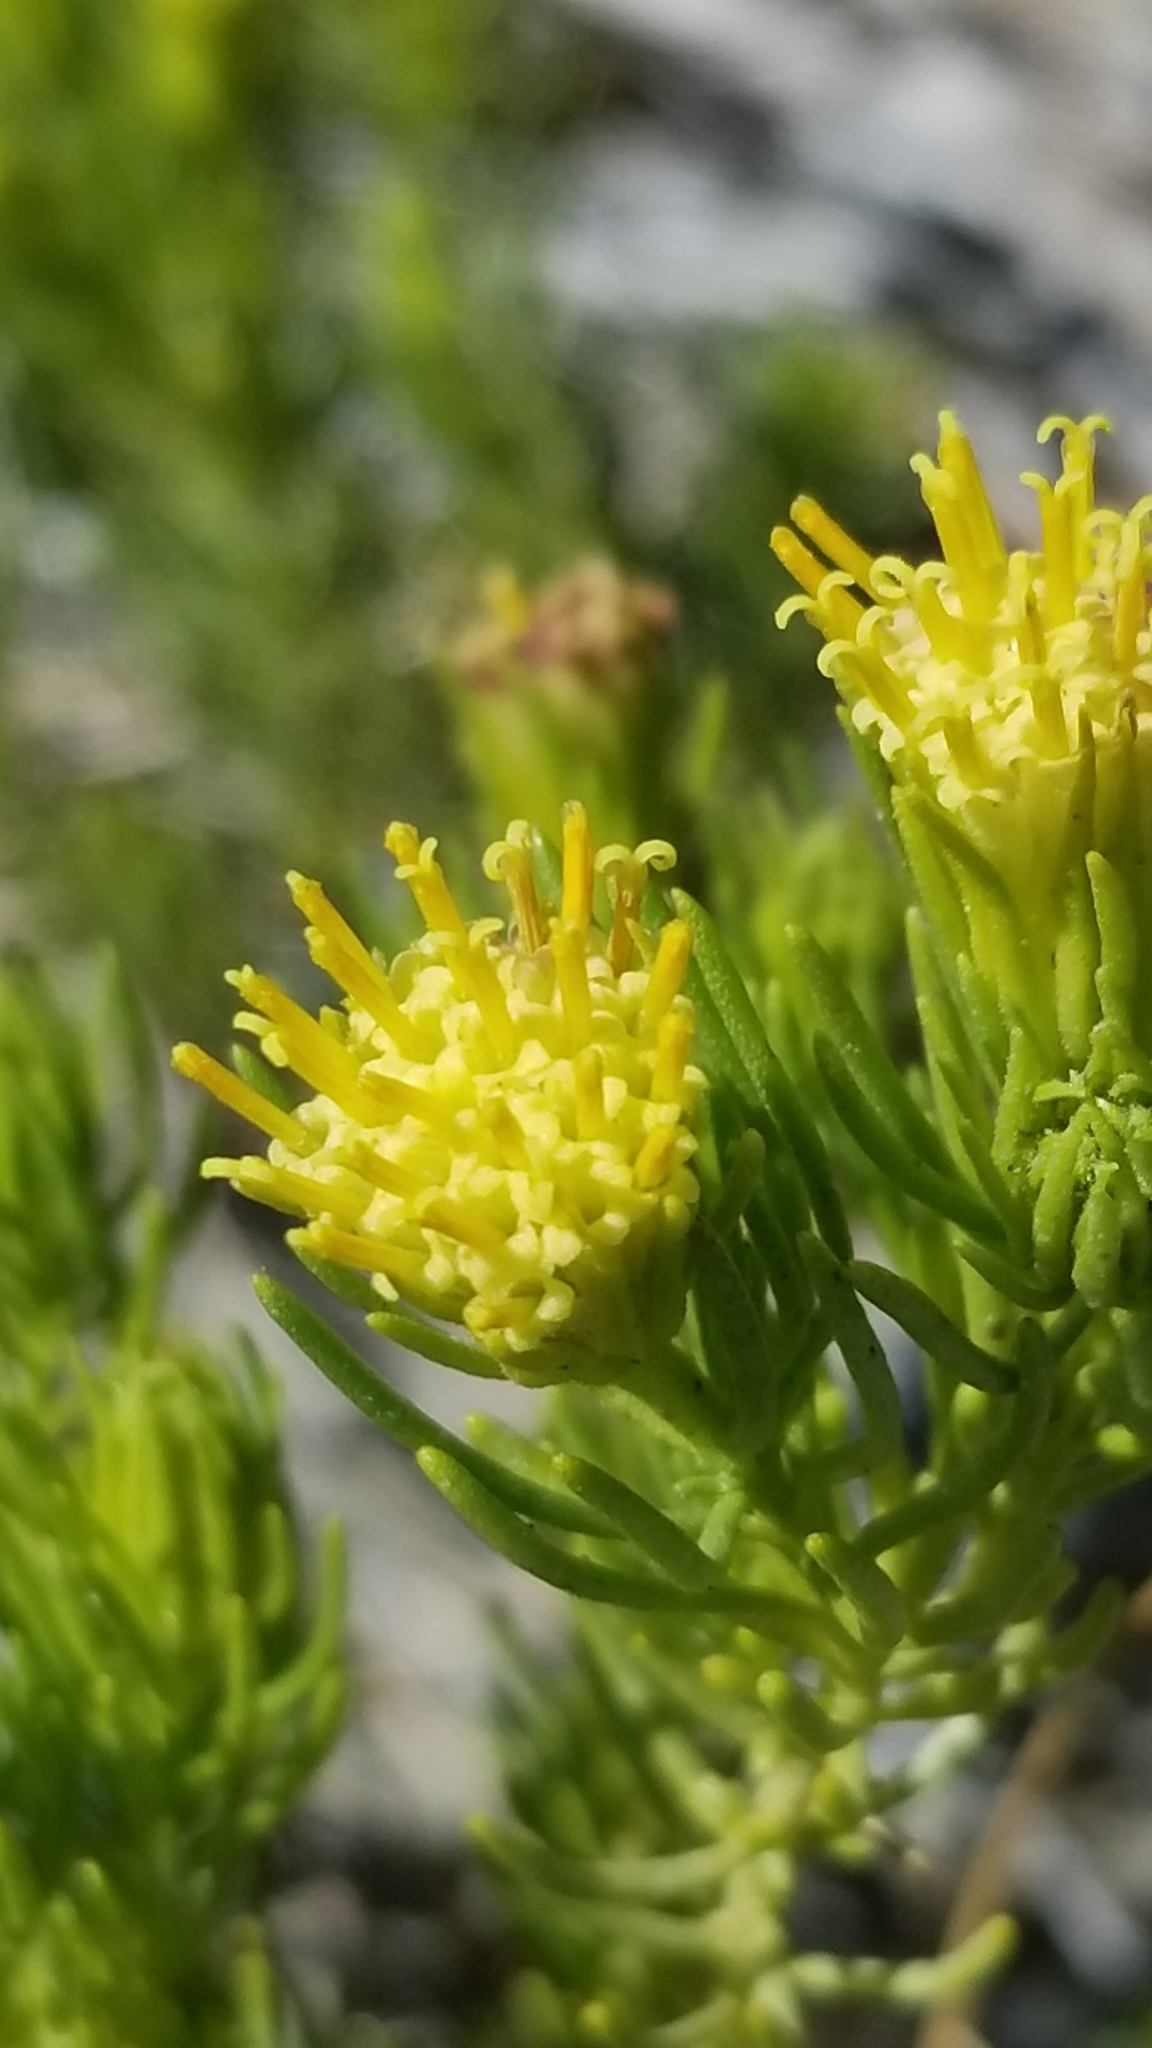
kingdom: Plantae
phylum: Tracheophyta
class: Magnoliopsida
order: Asterales
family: Asteraceae
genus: Peucephyllum
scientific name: Peucephyllum schottii
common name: Pygmy-cedar
